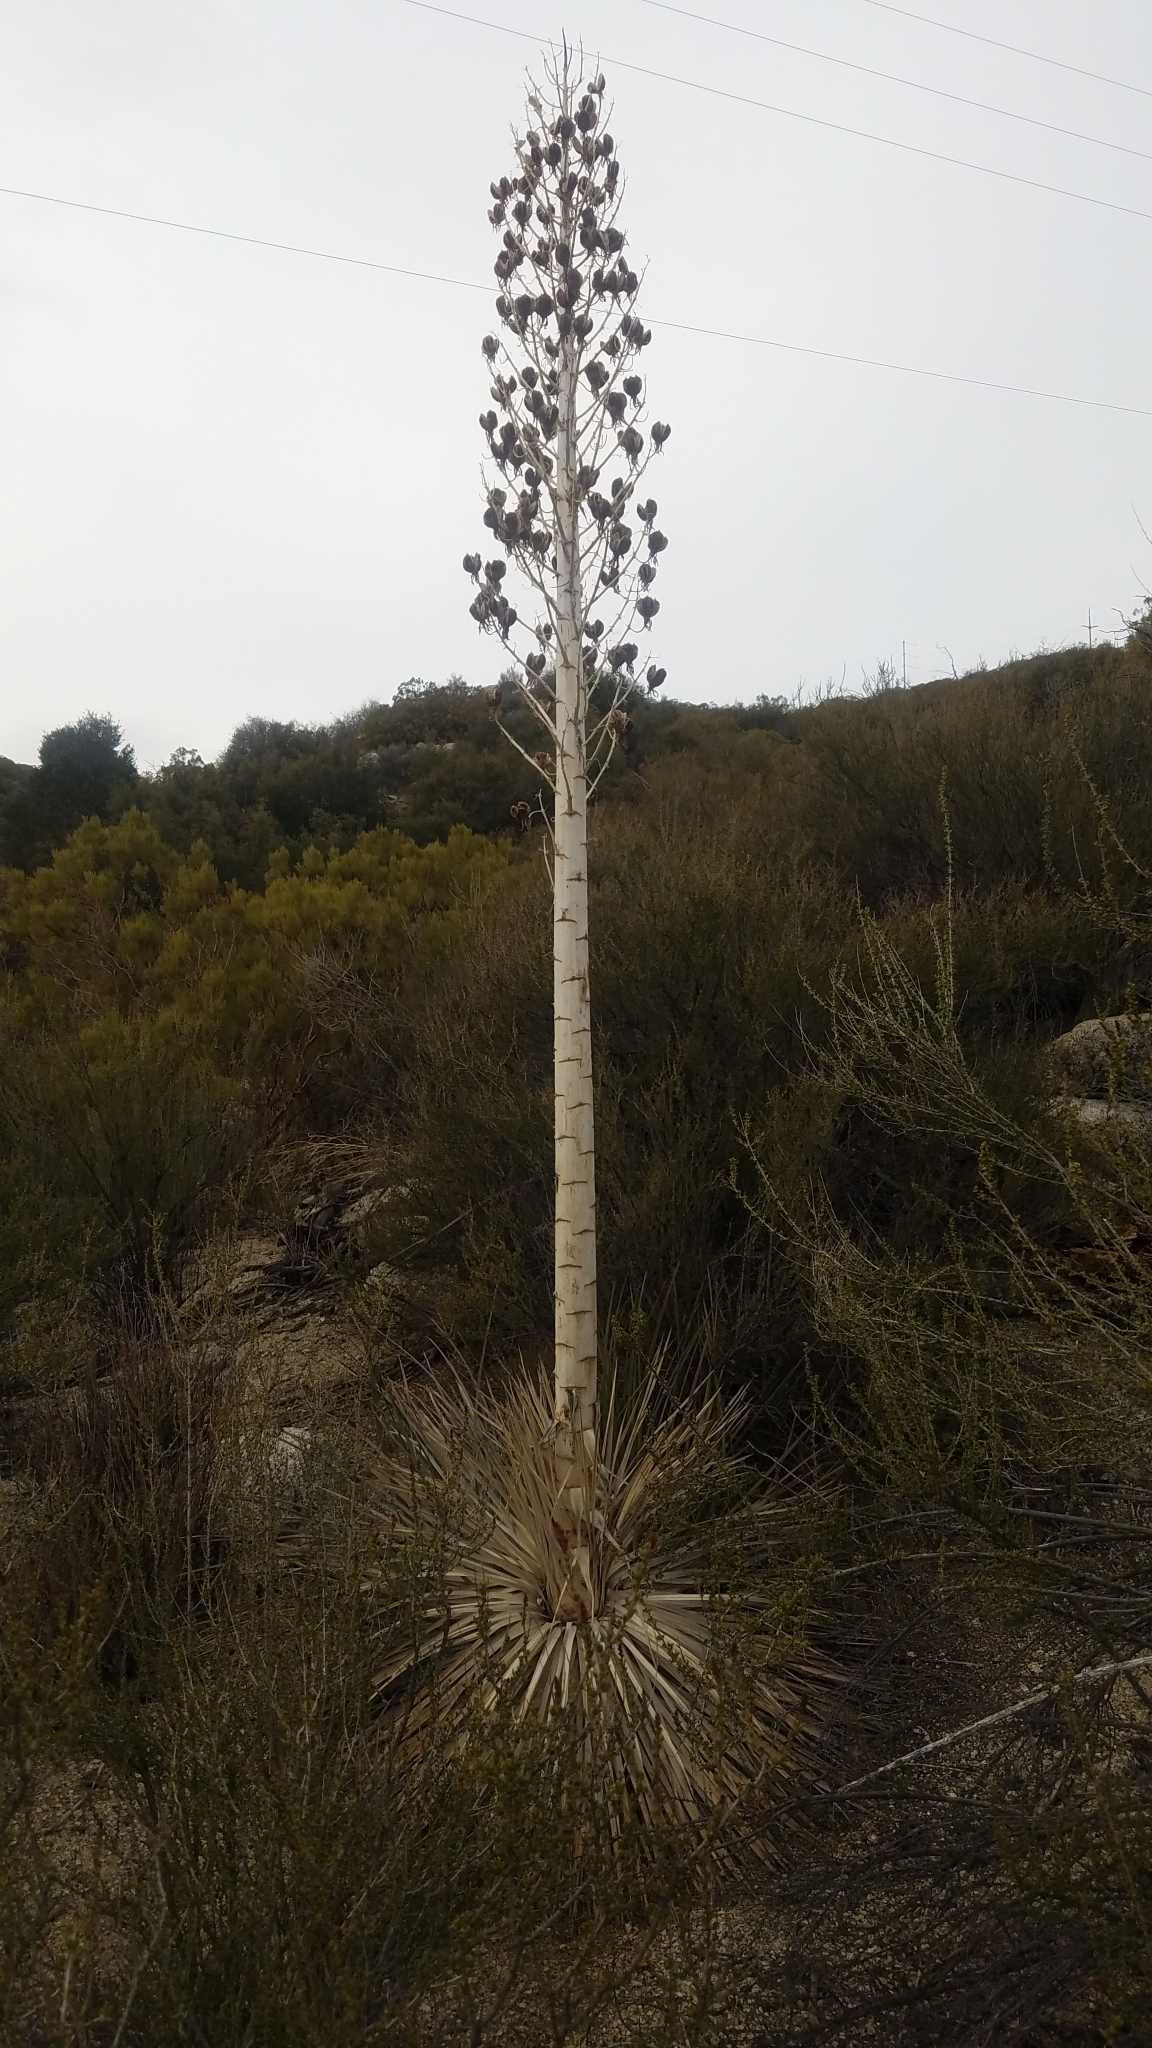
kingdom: Plantae
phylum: Tracheophyta
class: Liliopsida
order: Asparagales
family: Asparagaceae
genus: Hesperoyucca
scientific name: Hesperoyucca whipplei
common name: Our lord's-candle
